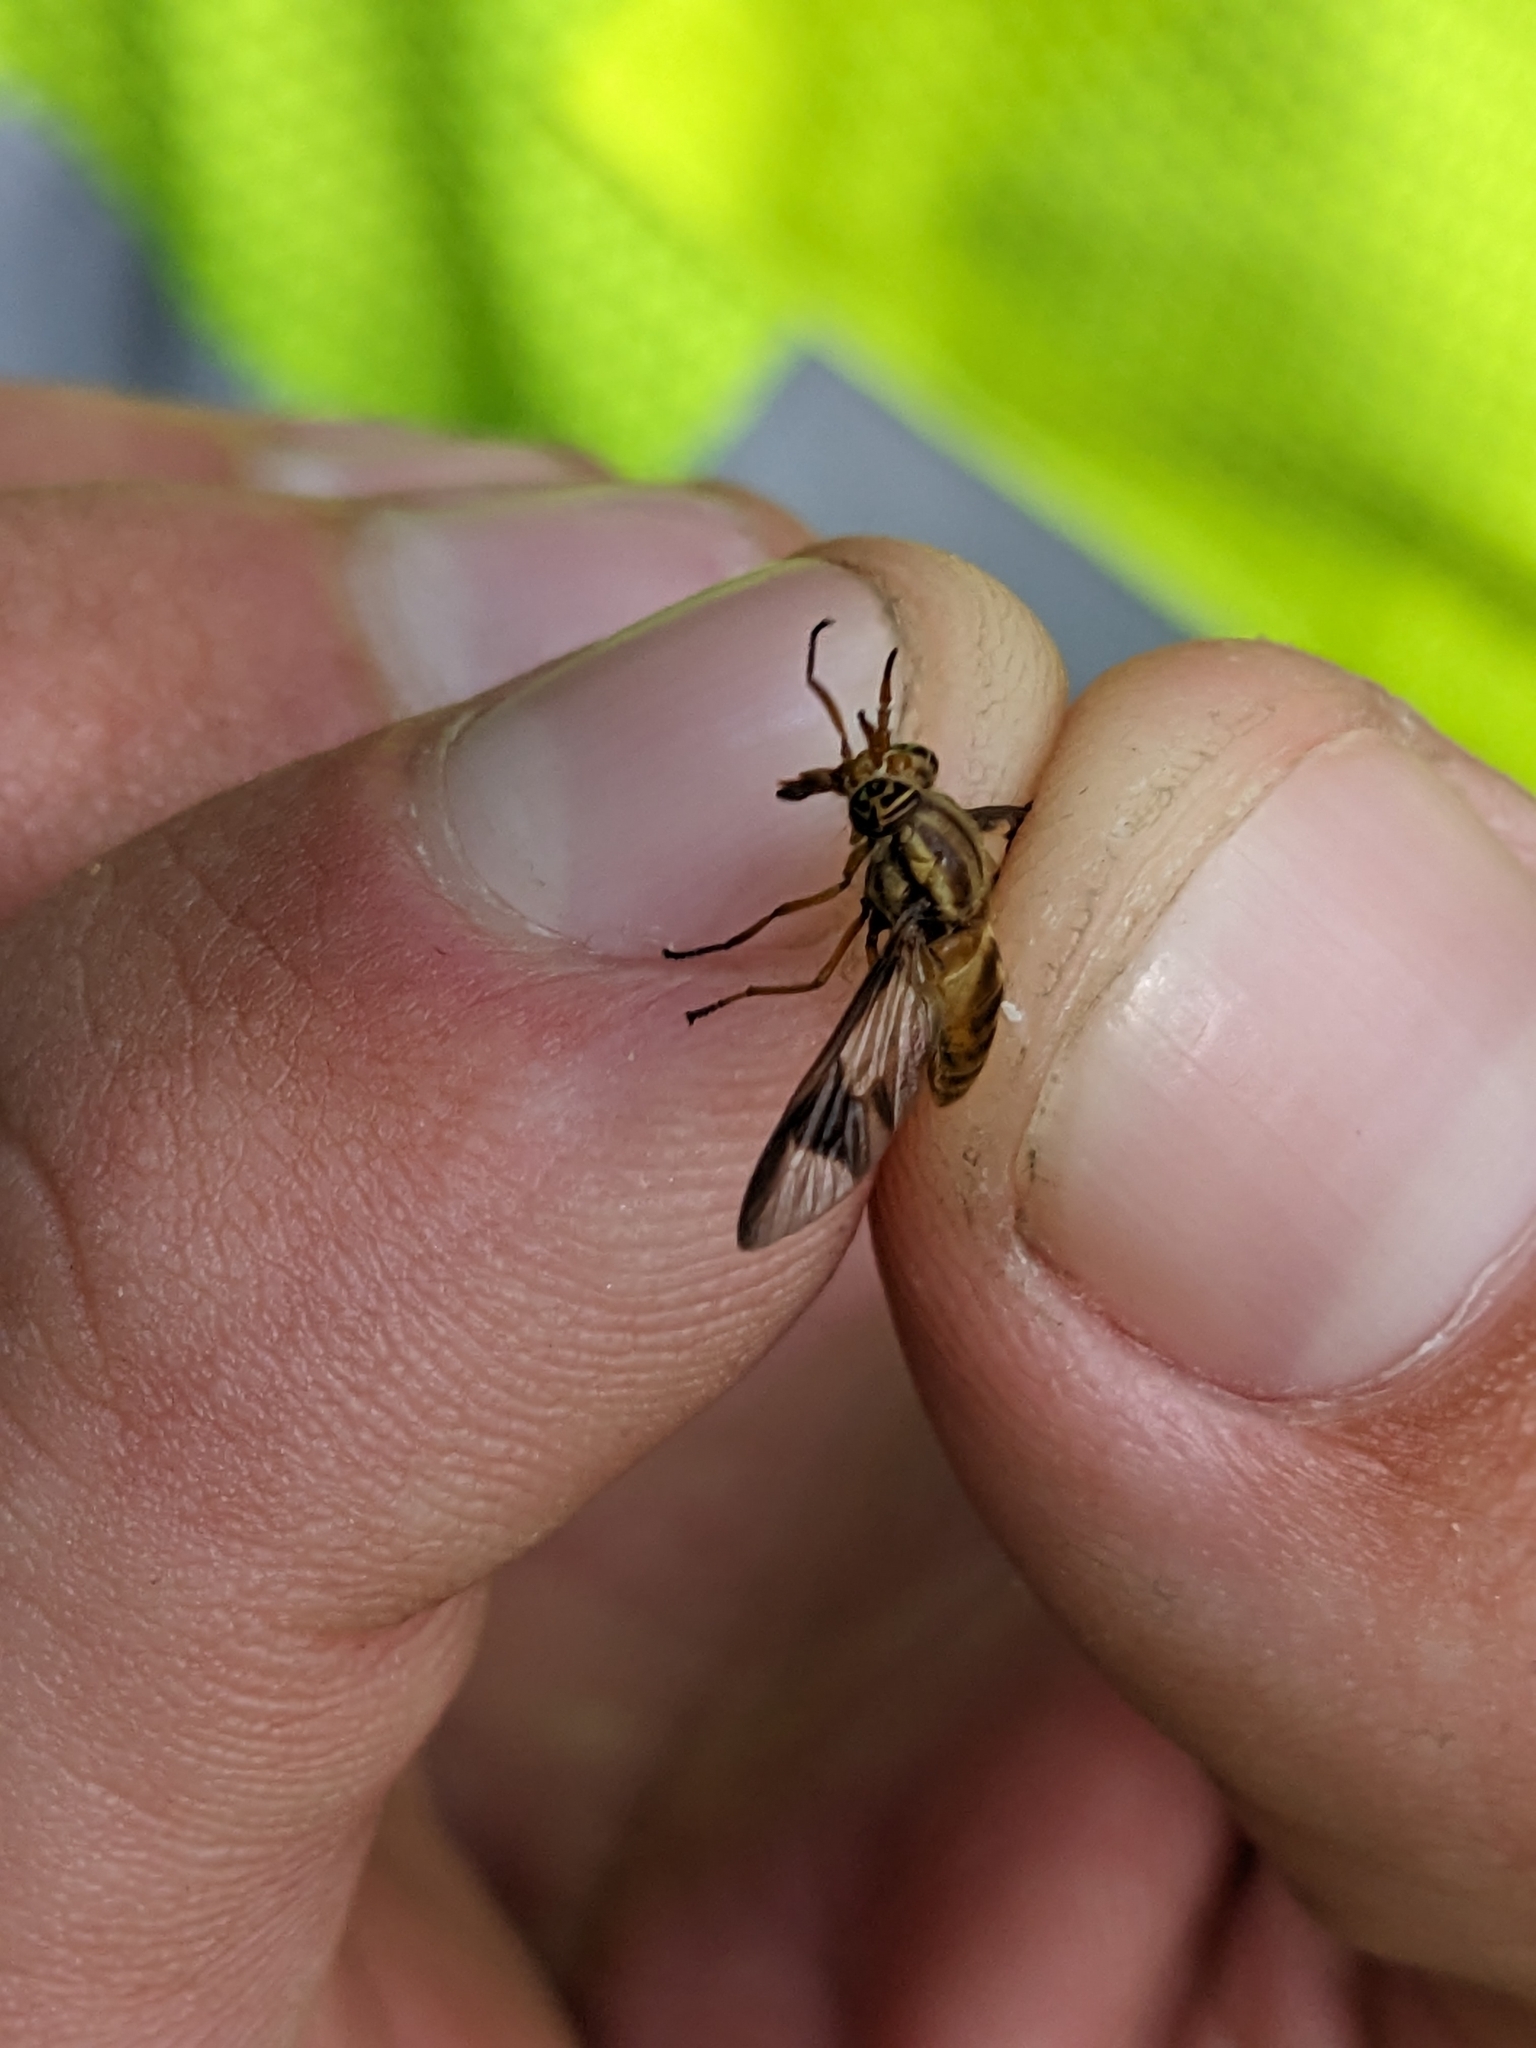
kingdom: Animalia
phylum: Arthropoda
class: Insecta
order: Diptera
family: Tabanidae
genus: Chrysops
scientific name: Chrysops callidus
